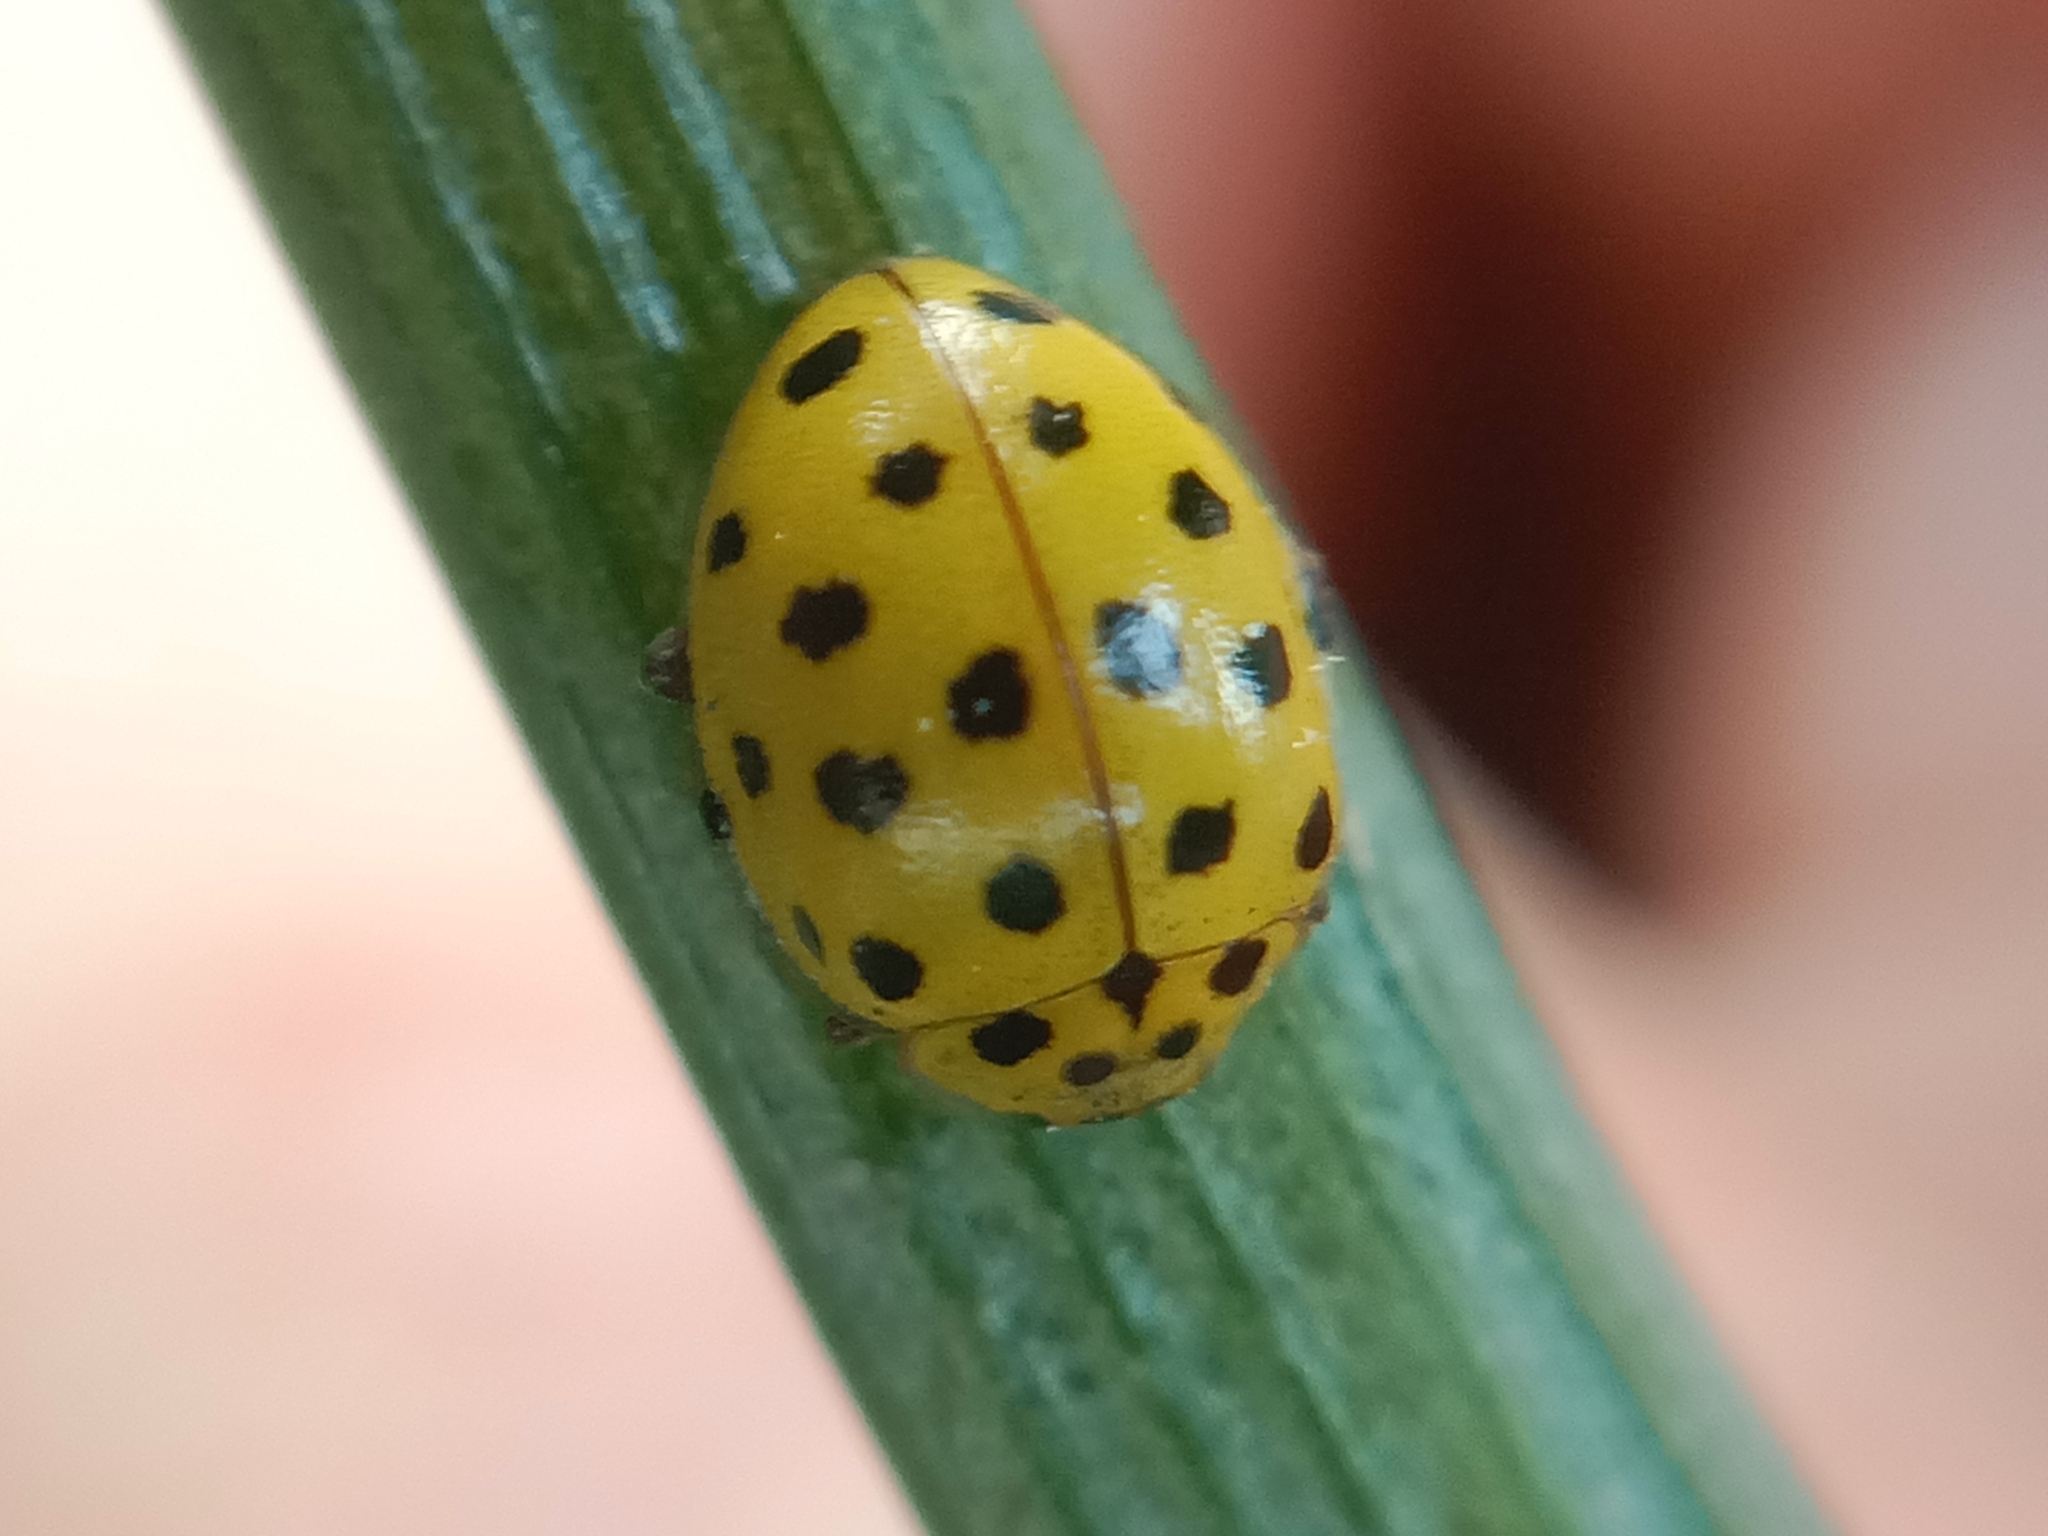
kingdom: Animalia
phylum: Arthropoda
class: Insecta
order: Coleoptera
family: Coccinellidae
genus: Psyllobora
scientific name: Psyllobora vigintiduopunctata
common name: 22-spot ladybird
